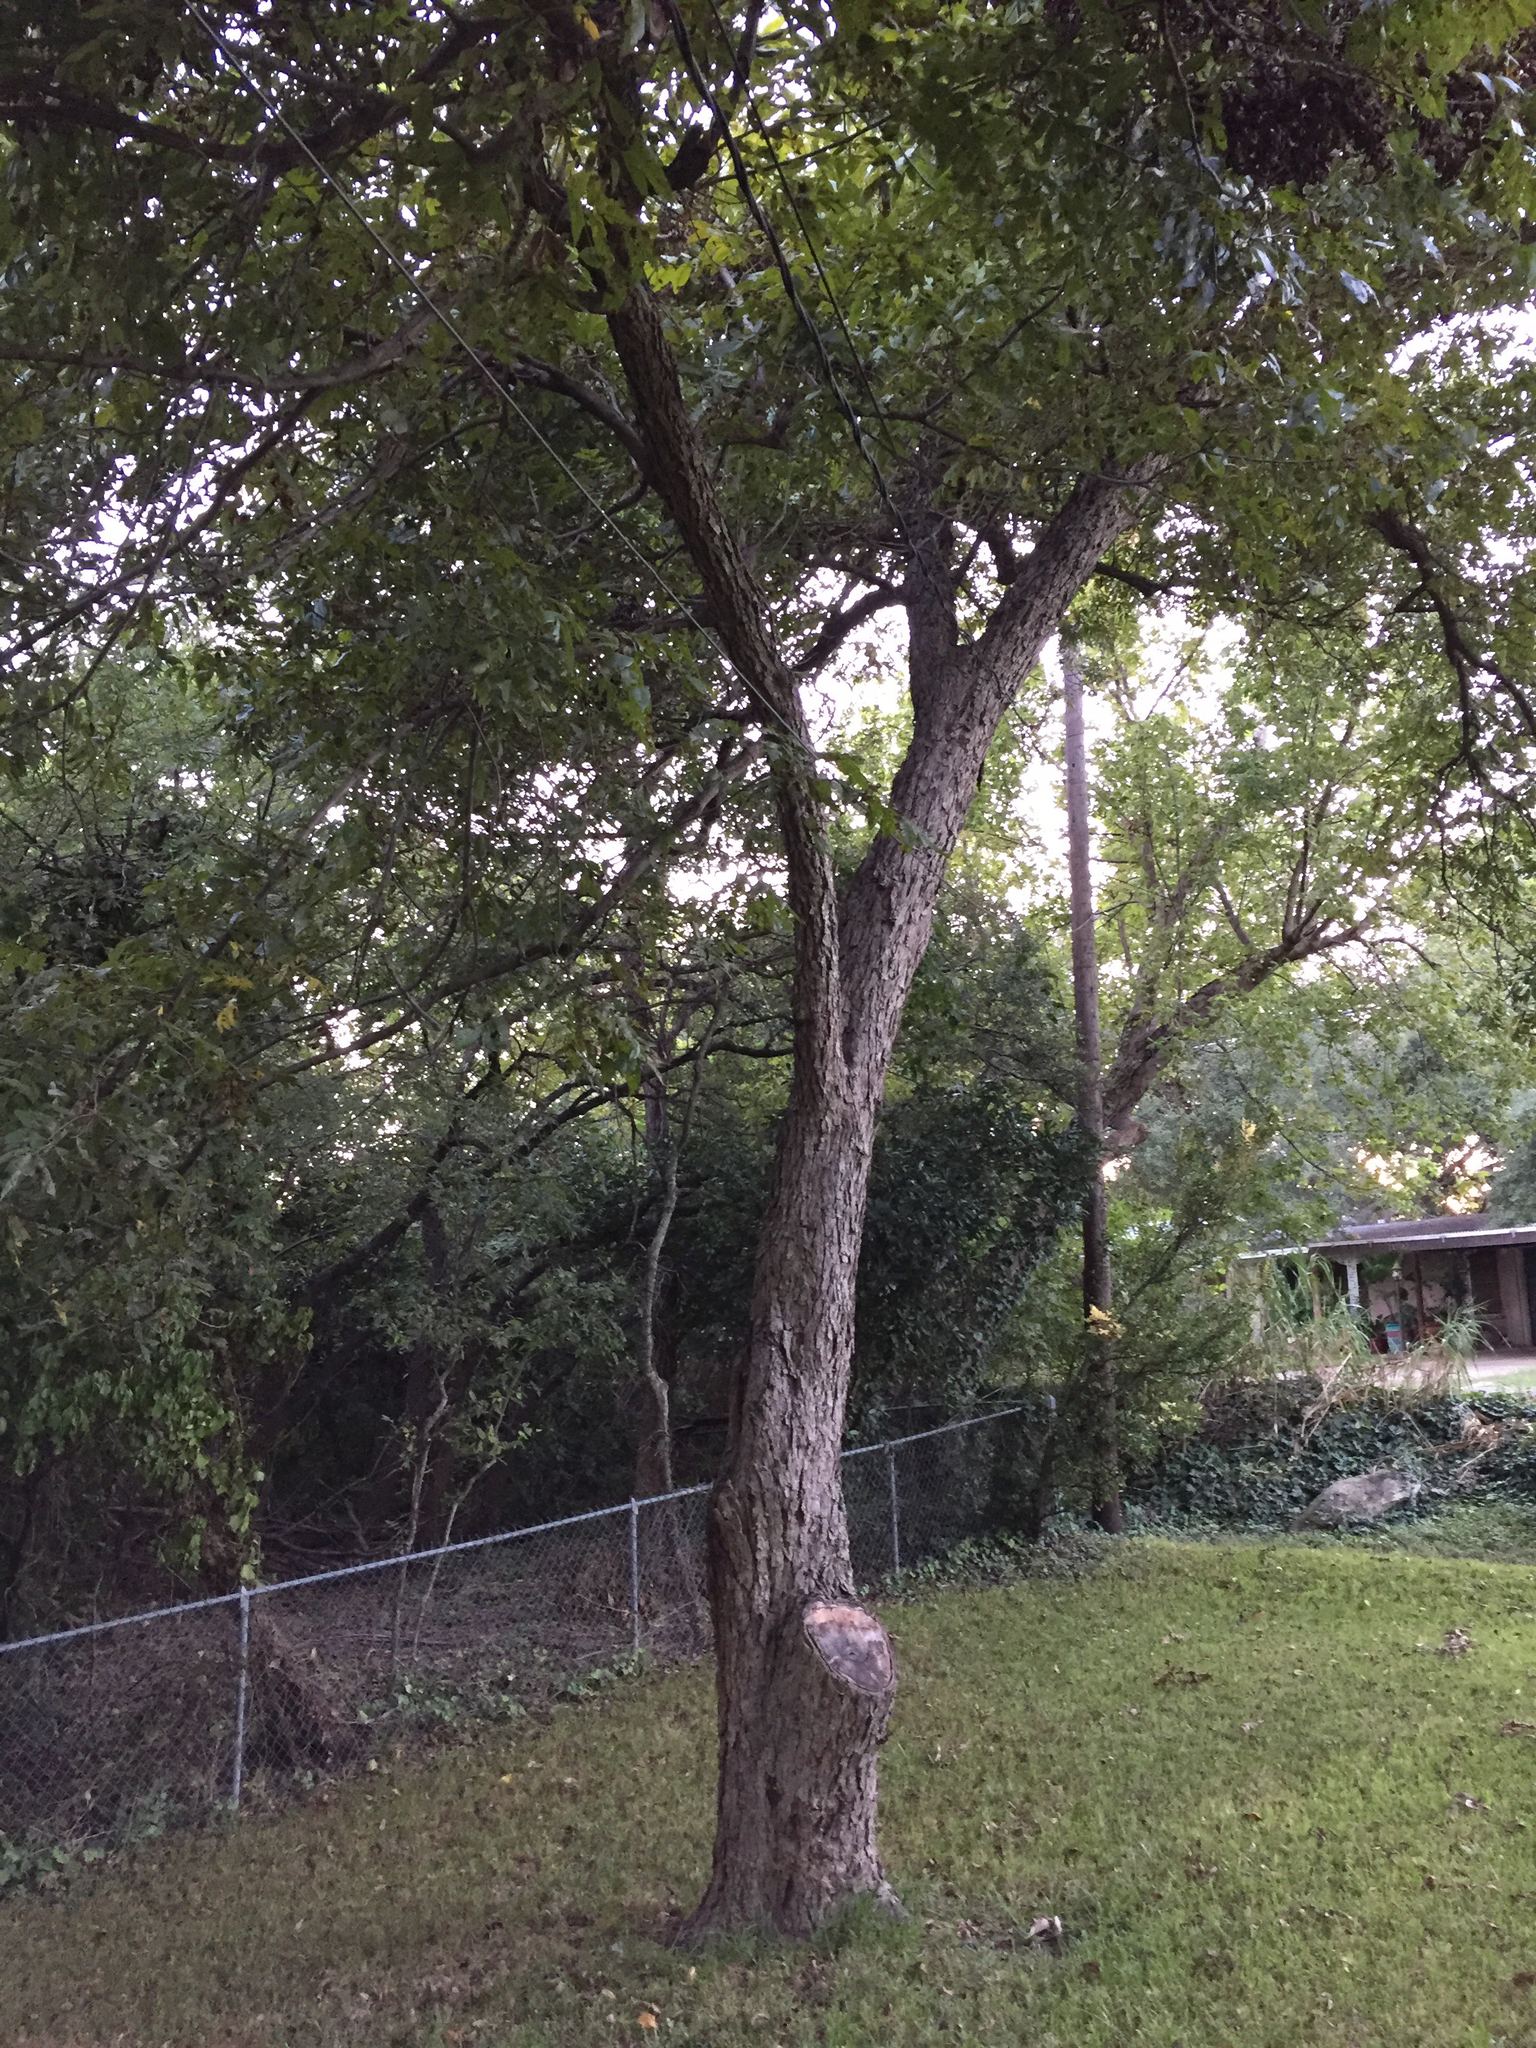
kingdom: Plantae
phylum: Tracheophyta
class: Magnoliopsida
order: Fagales
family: Juglandaceae
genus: Carya
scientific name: Carya illinoinensis
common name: Pecan
